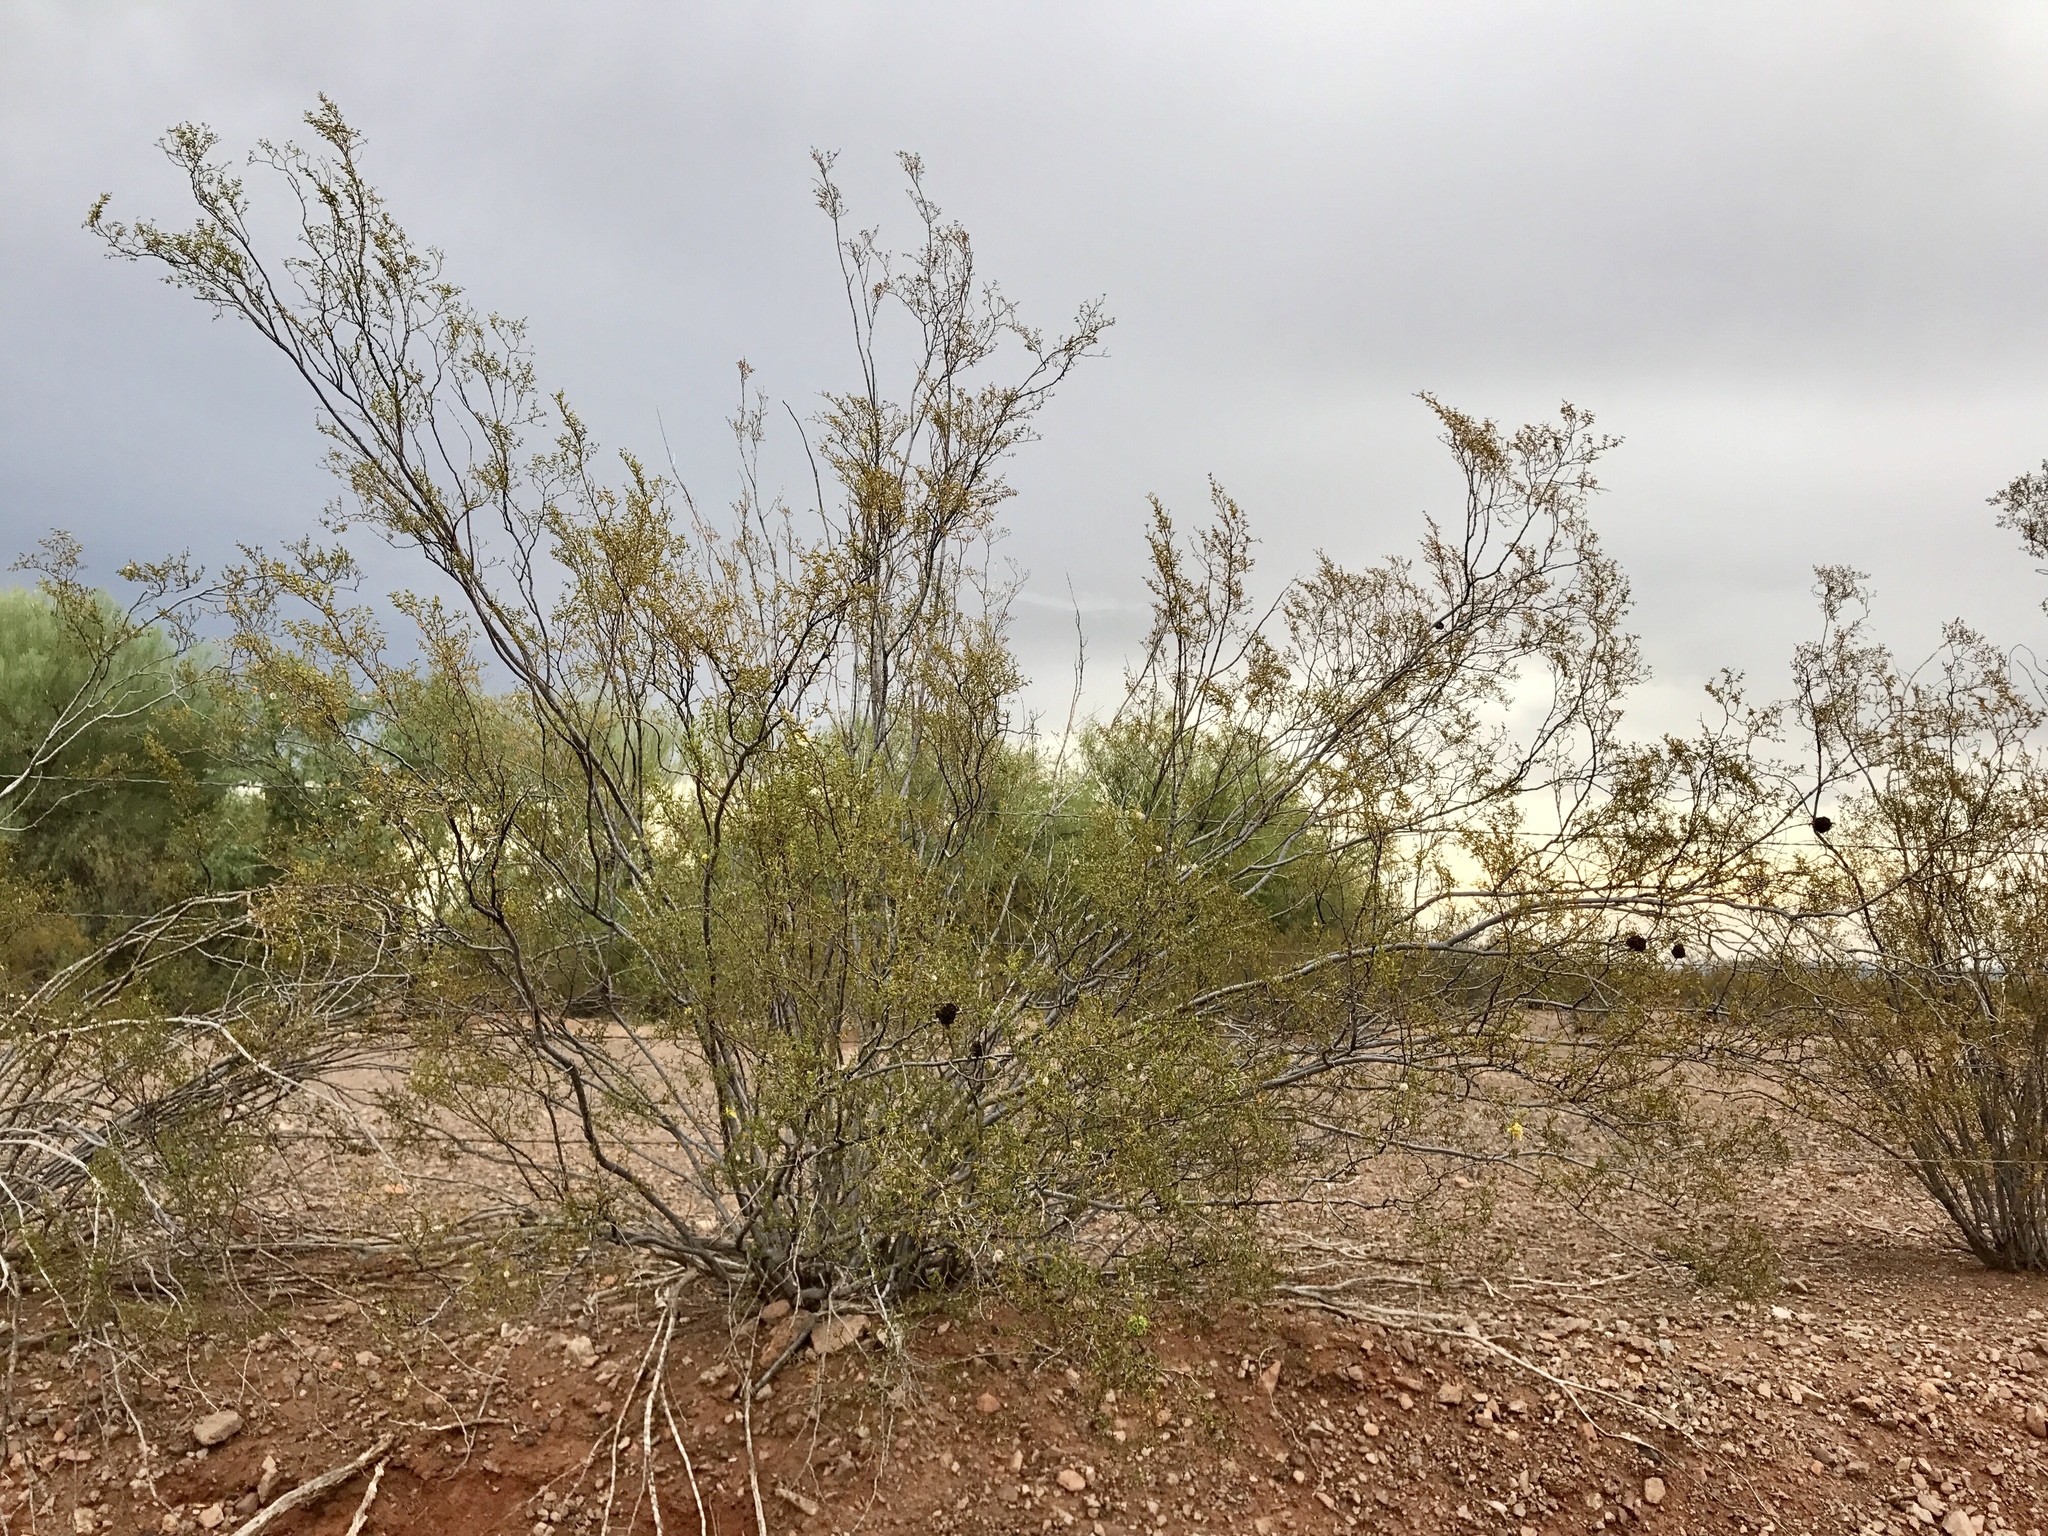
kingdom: Plantae
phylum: Tracheophyta
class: Magnoliopsida
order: Zygophyllales
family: Zygophyllaceae
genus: Larrea
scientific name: Larrea tridentata
